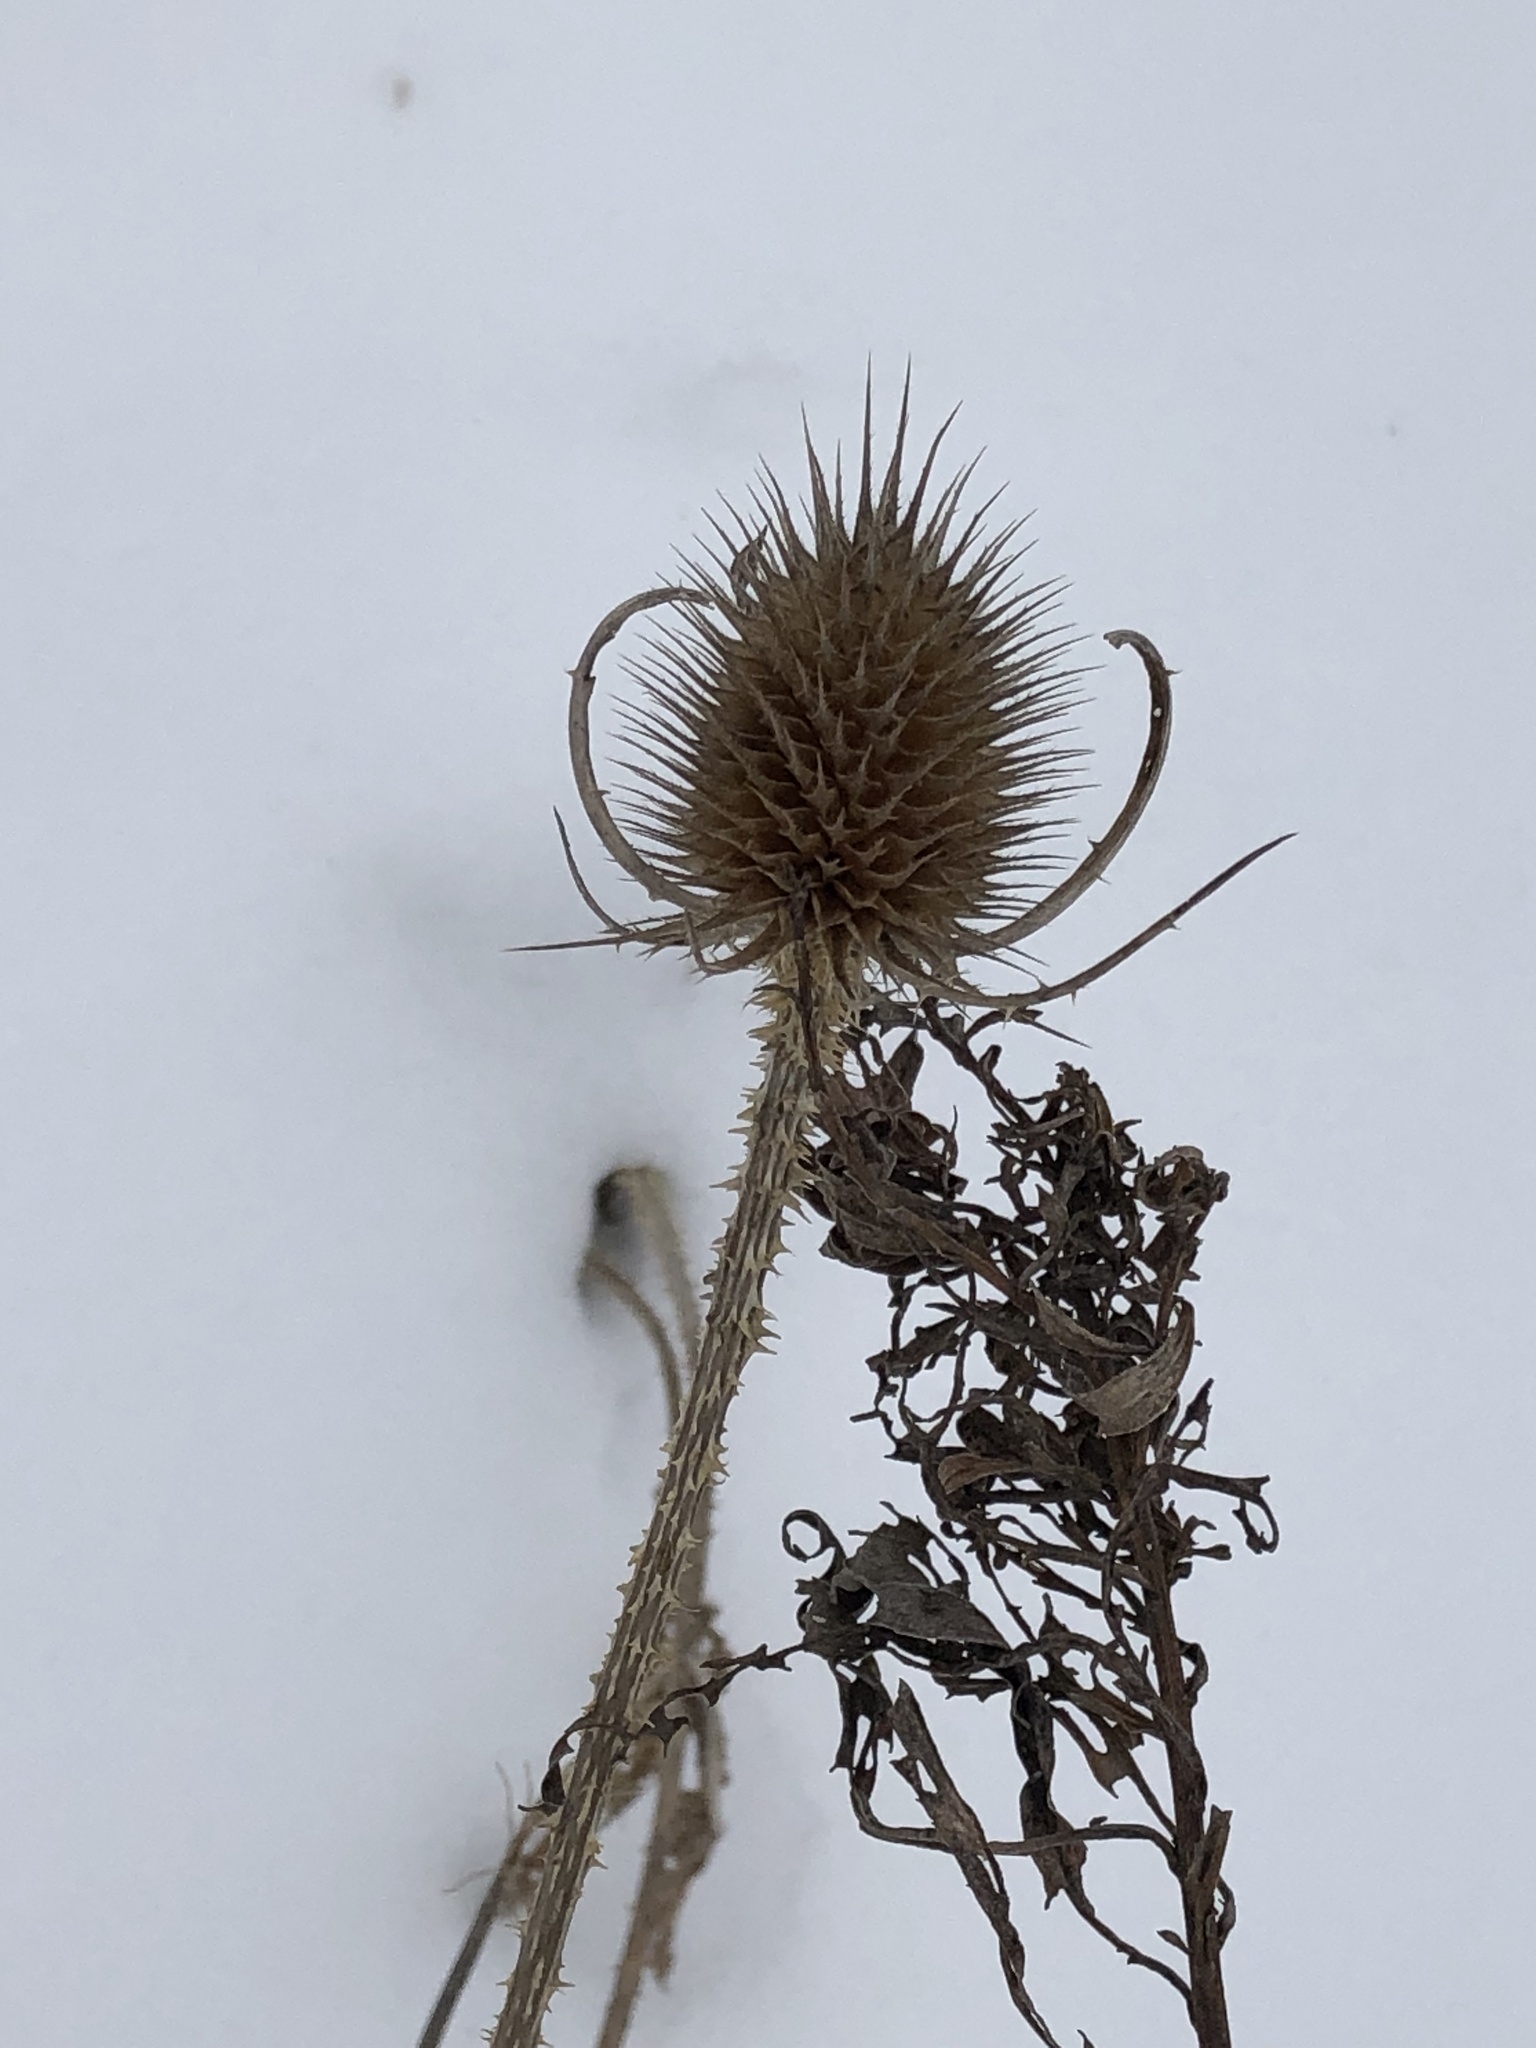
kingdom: Plantae
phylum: Tracheophyta
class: Magnoliopsida
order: Dipsacales
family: Caprifoliaceae
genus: Dipsacus
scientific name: Dipsacus fullonum
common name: Teasel
